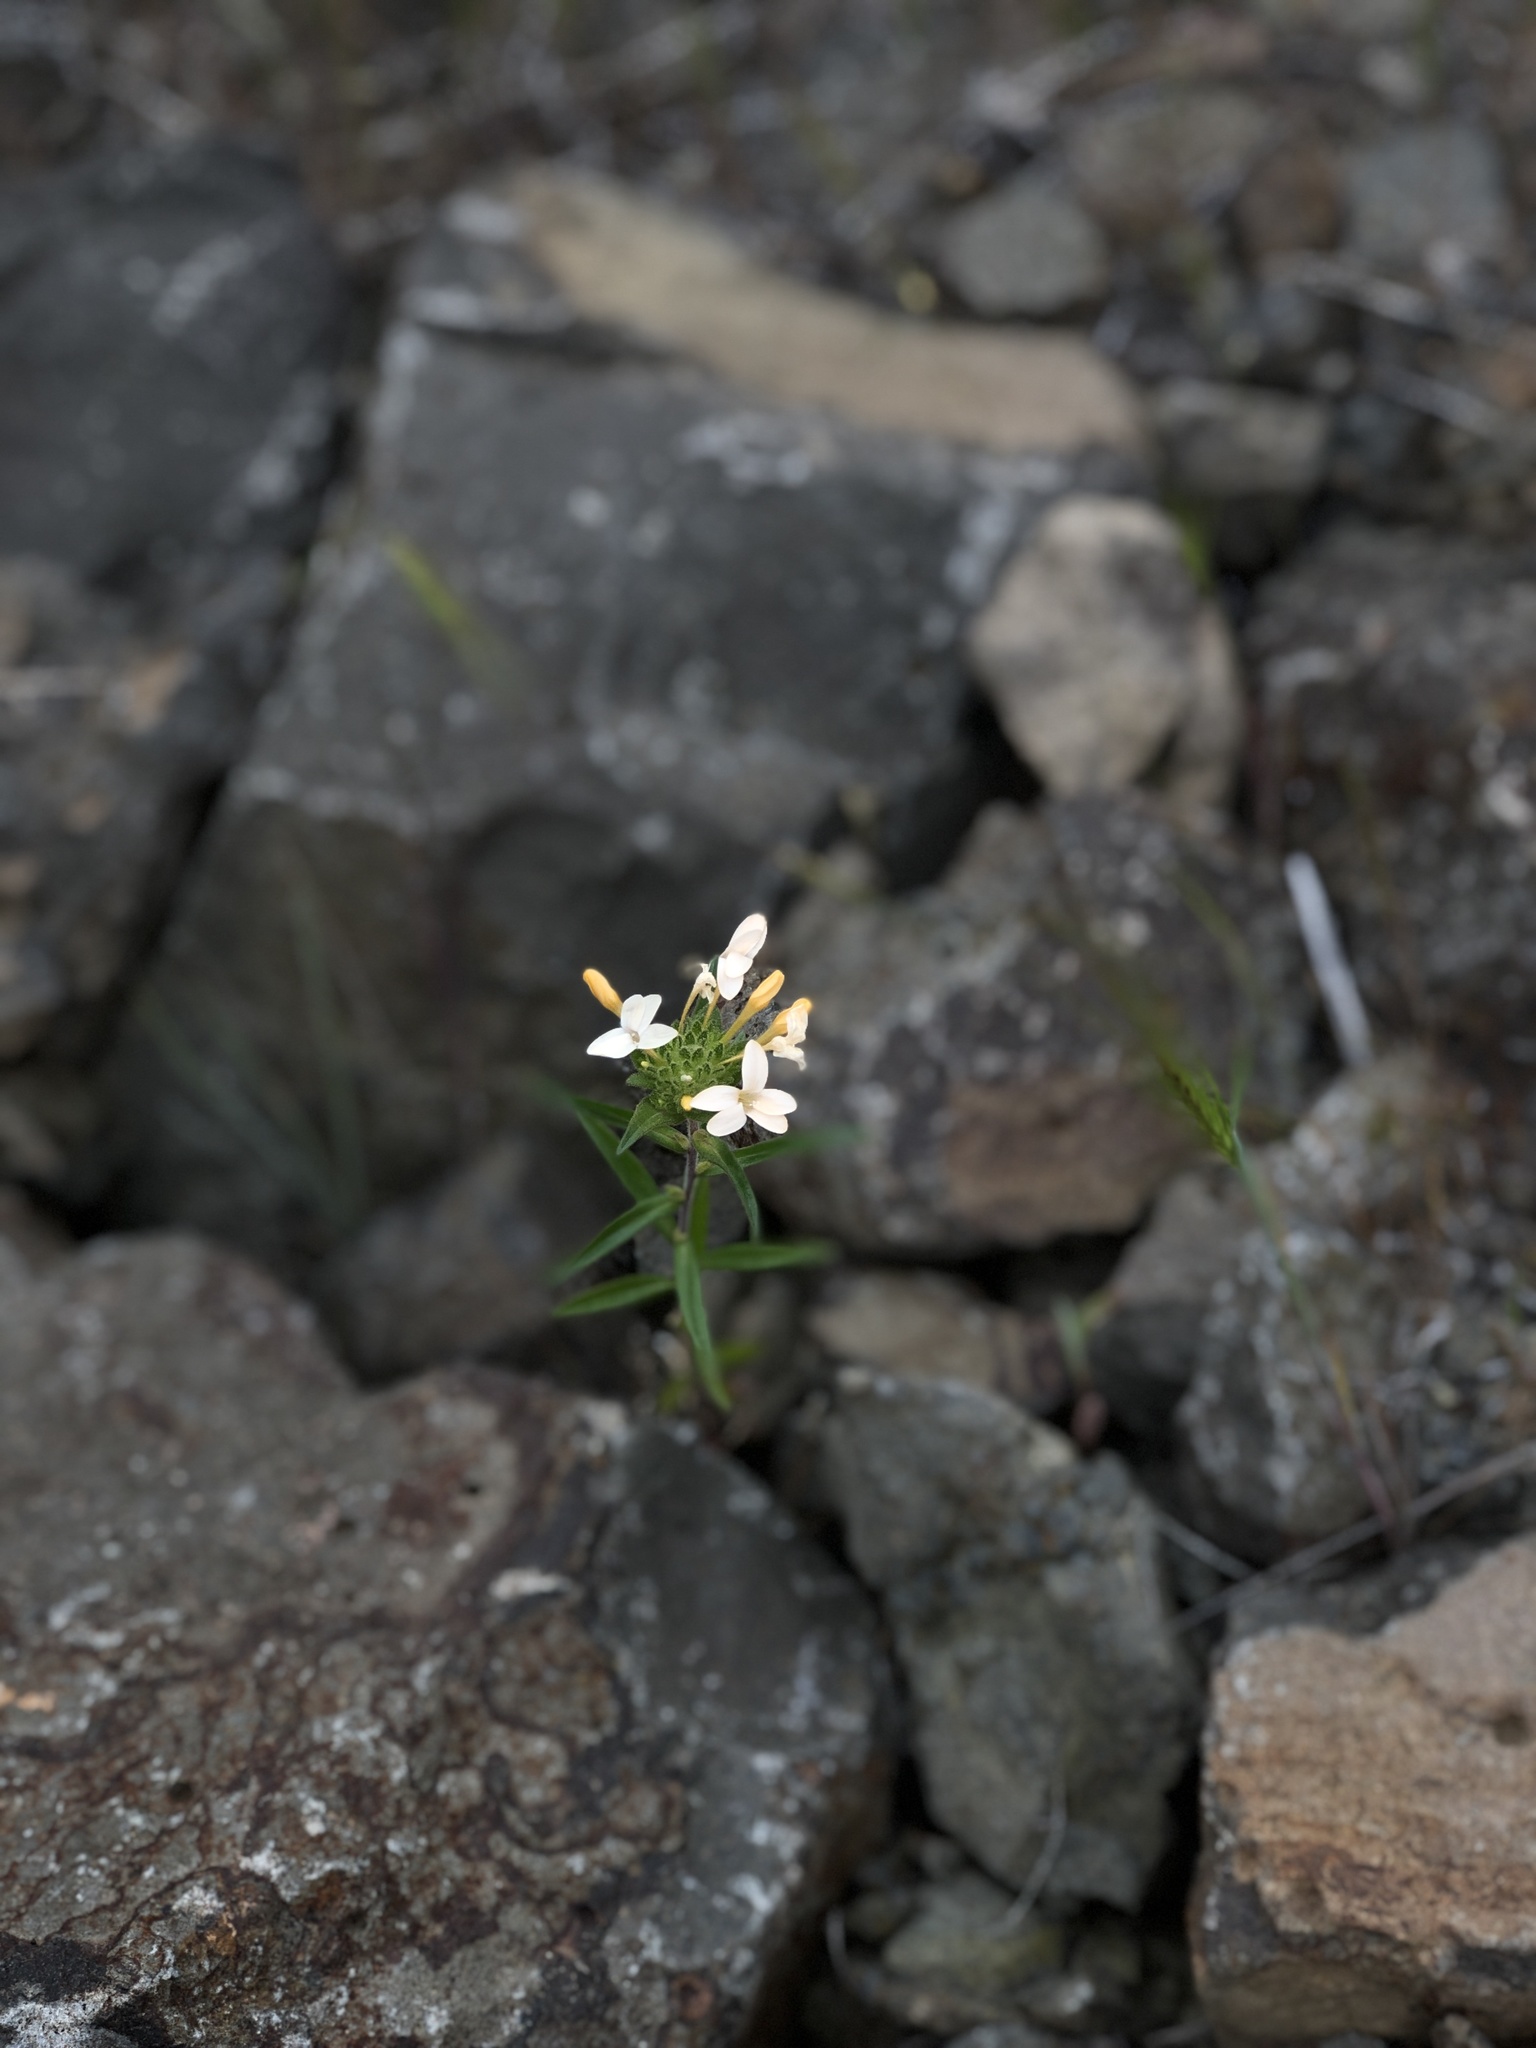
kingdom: Plantae
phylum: Tracheophyta
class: Magnoliopsida
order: Ericales
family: Polemoniaceae
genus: Collomia
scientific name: Collomia grandiflora
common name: California strawflower
